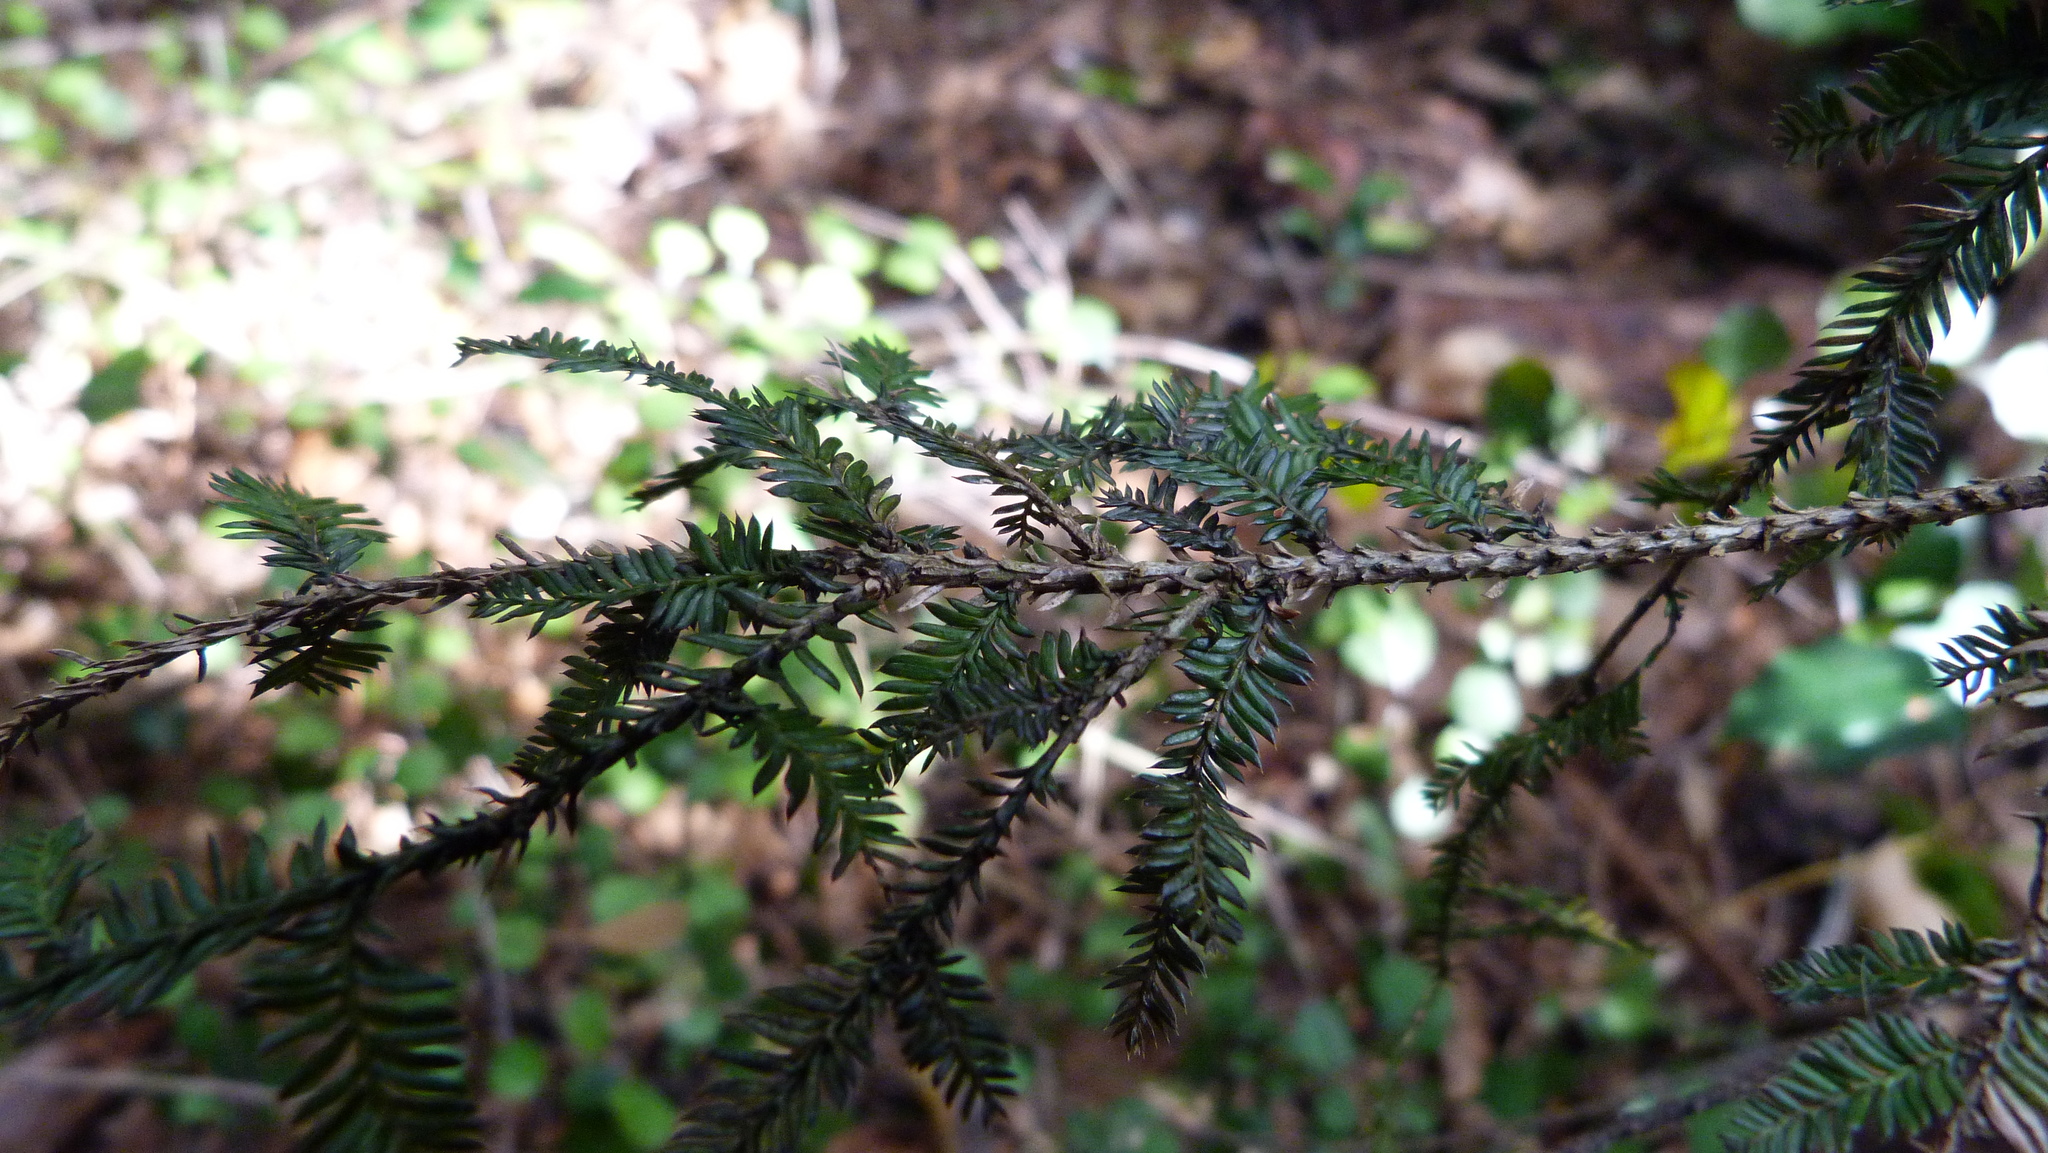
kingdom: Plantae
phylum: Tracheophyta
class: Pinopsida
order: Pinales
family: Podocarpaceae
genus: Dacrycarpus
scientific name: Dacrycarpus dacrydioides
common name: White pine
